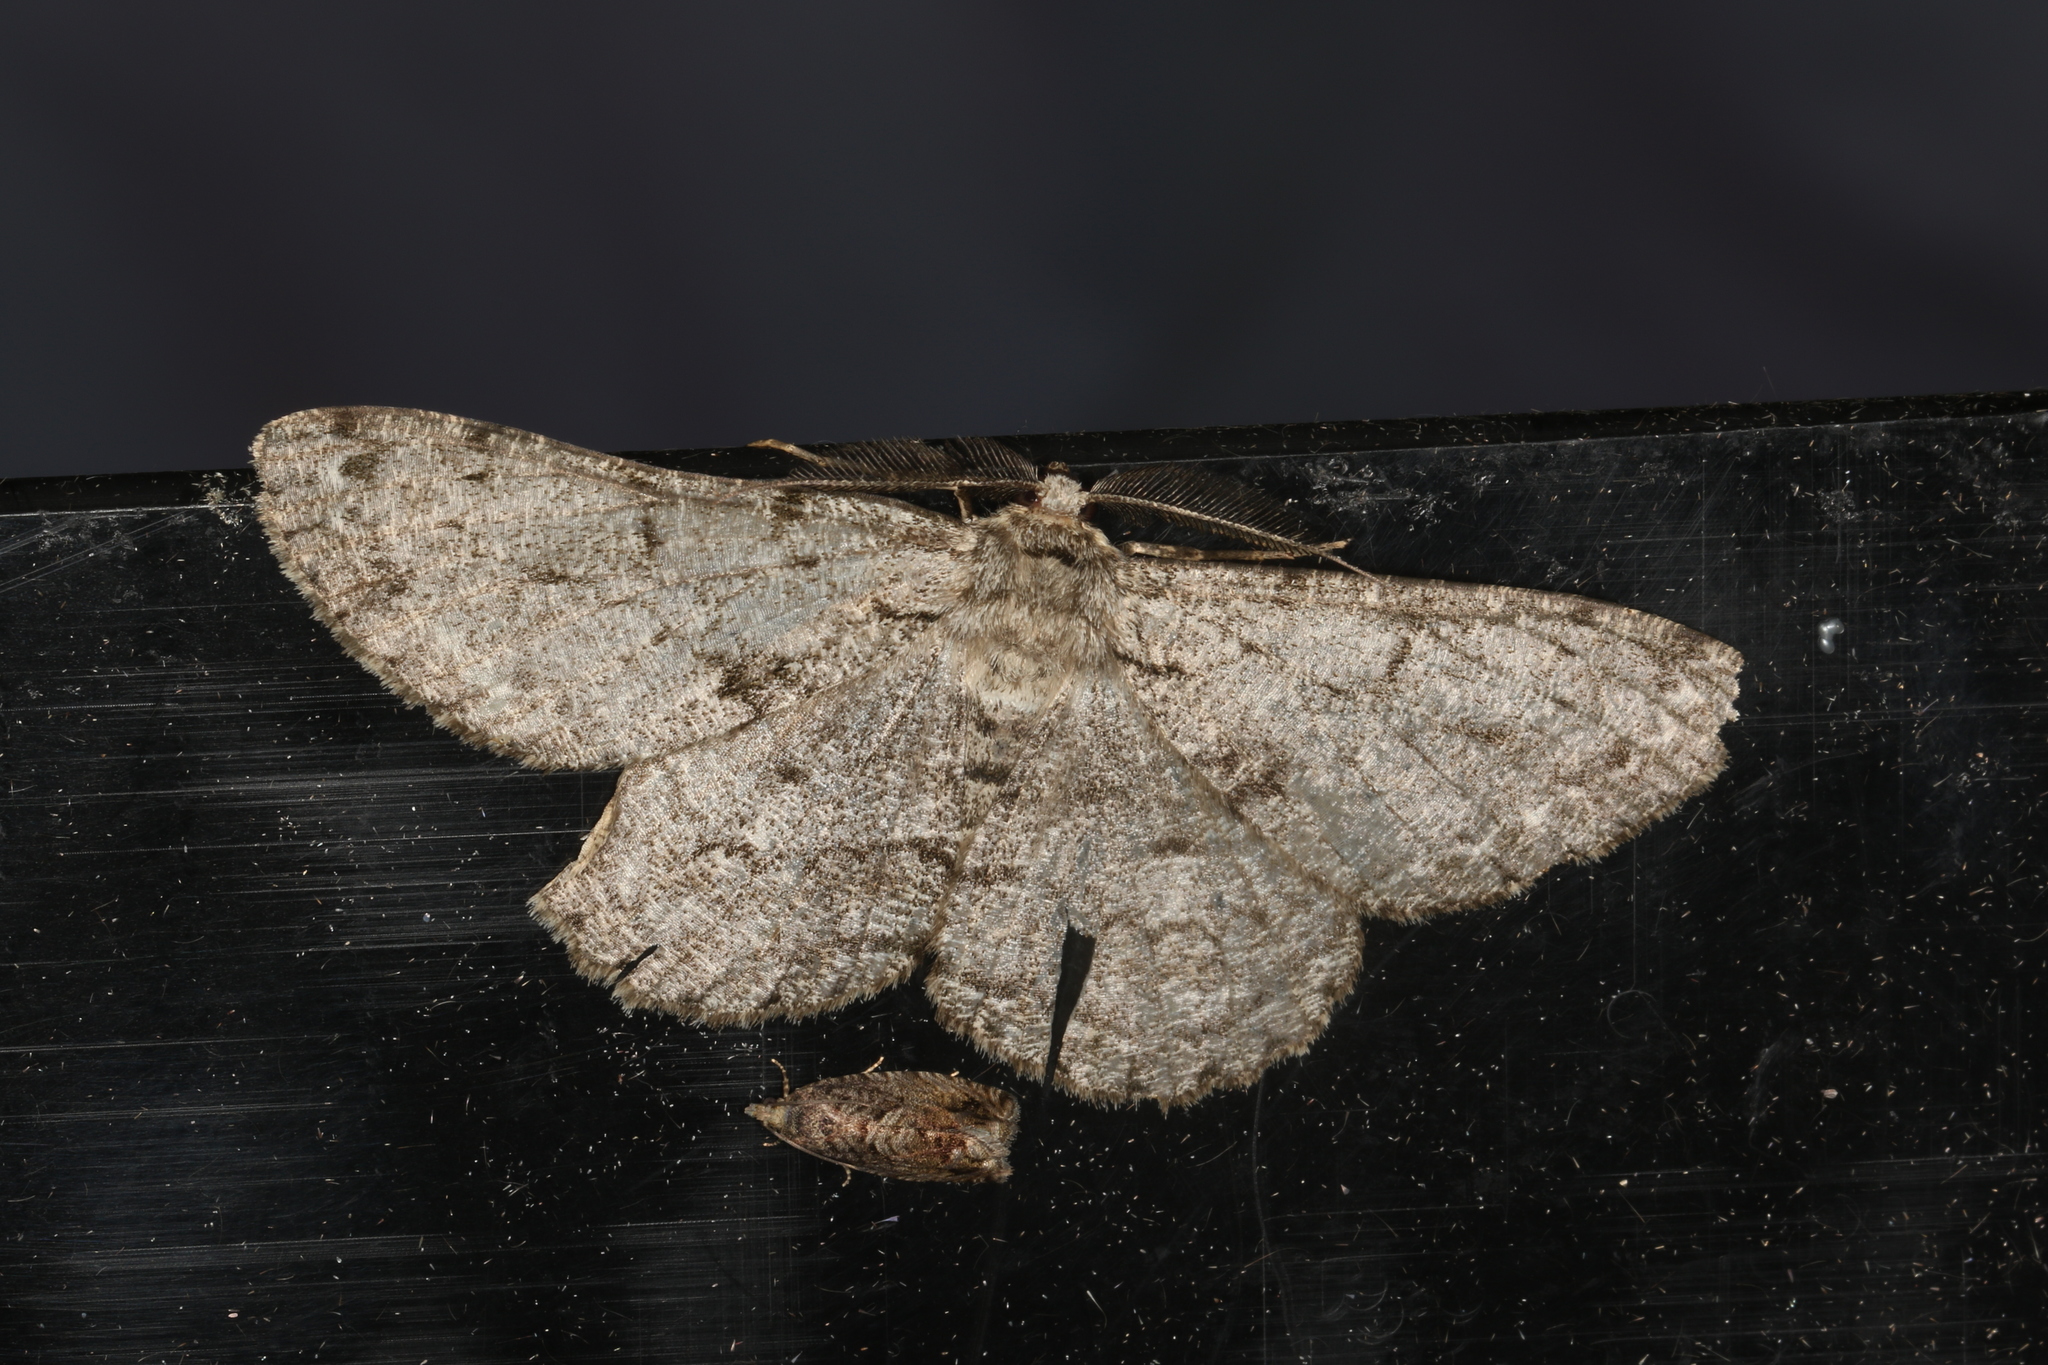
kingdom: Animalia
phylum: Arthropoda
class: Insecta
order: Lepidoptera
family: Geometridae
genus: Hypomecis
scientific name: Hypomecis roboraria
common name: Great oak beauty
